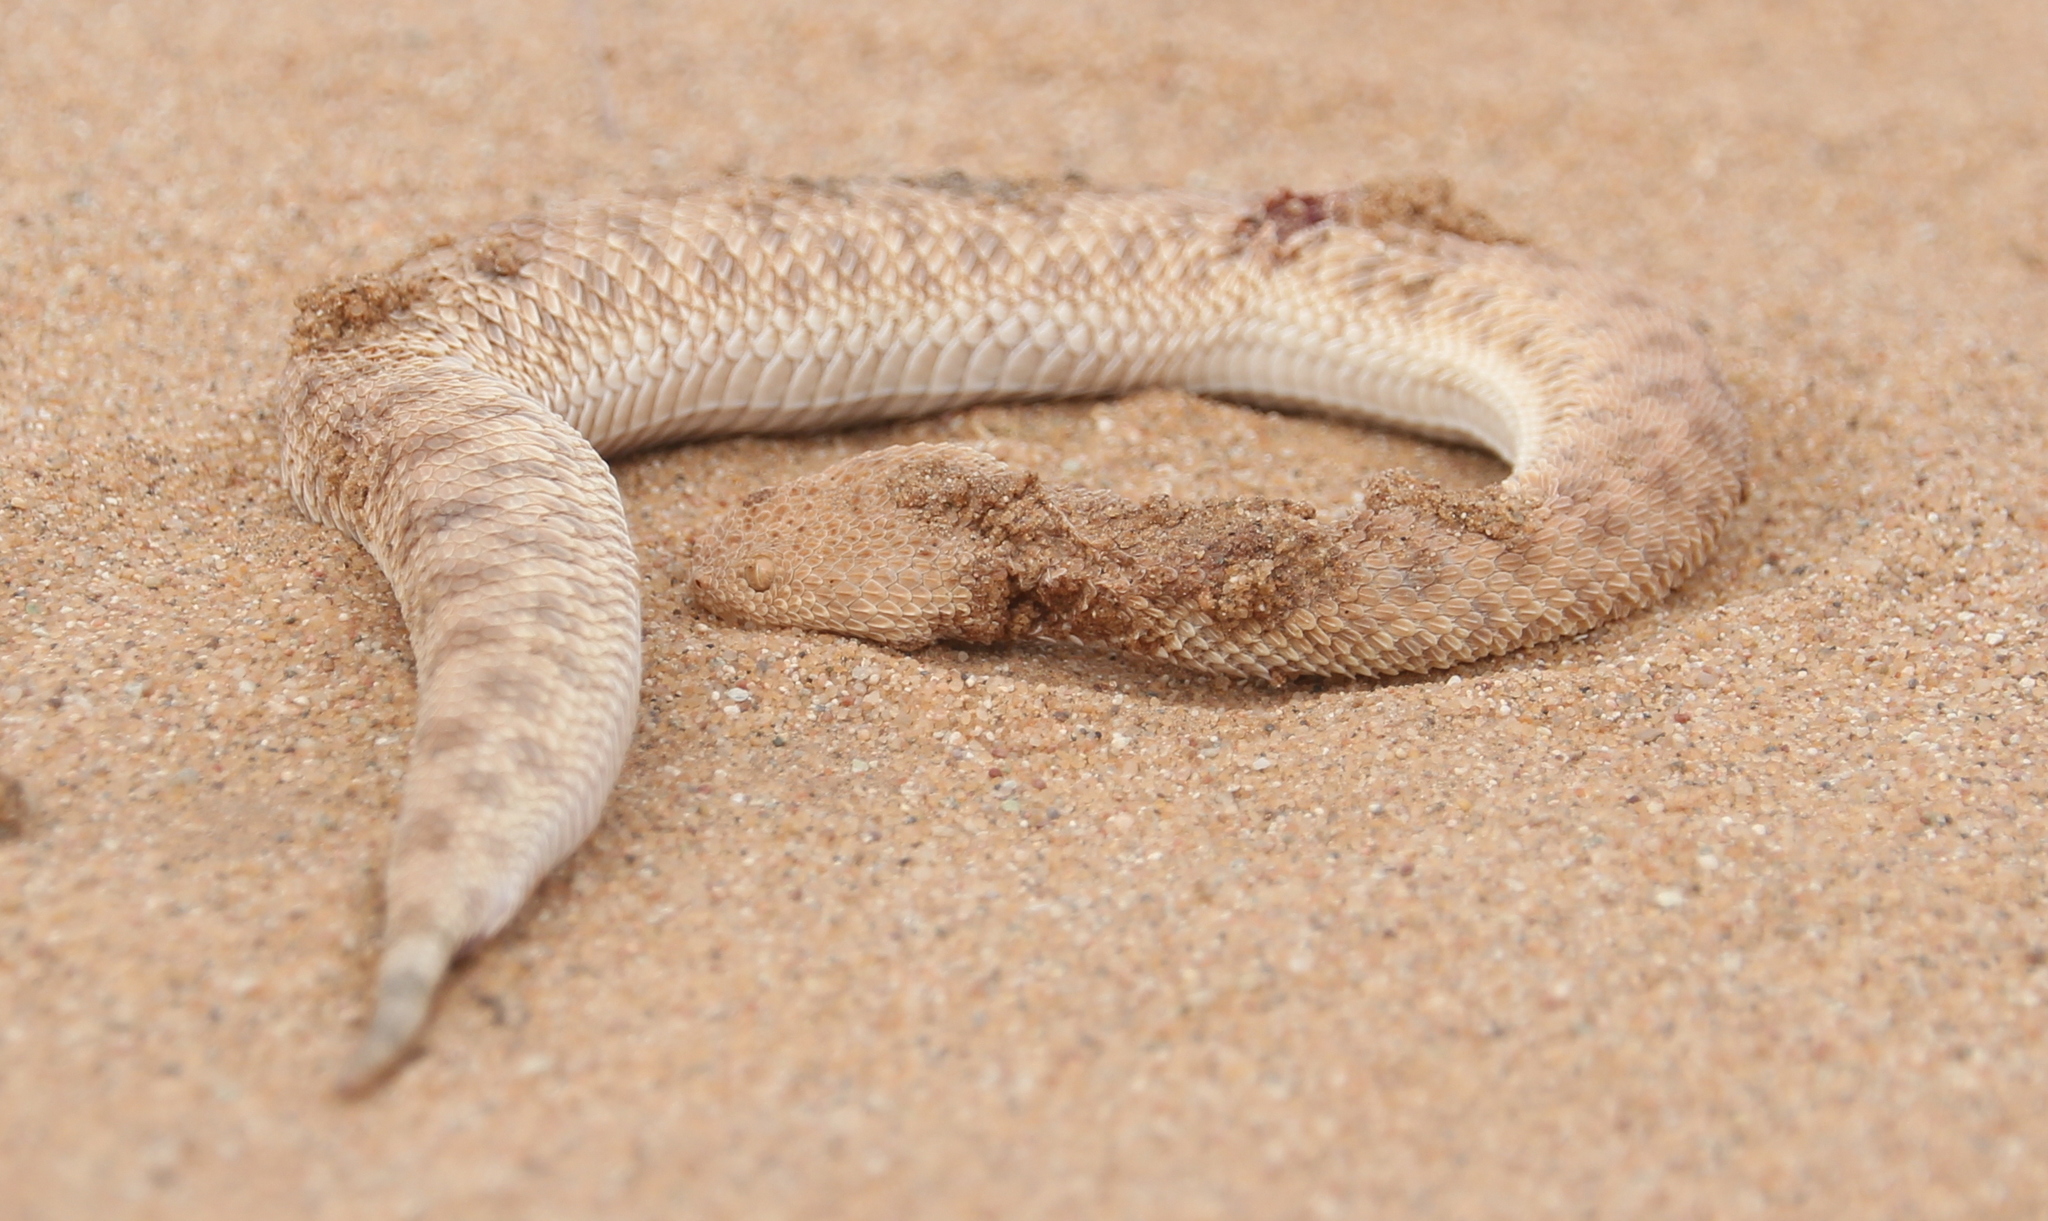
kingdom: Animalia
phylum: Chordata
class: Squamata
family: Viperidae
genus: Cerastes
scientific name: Cerastes vipera
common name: Sahara sand viper
